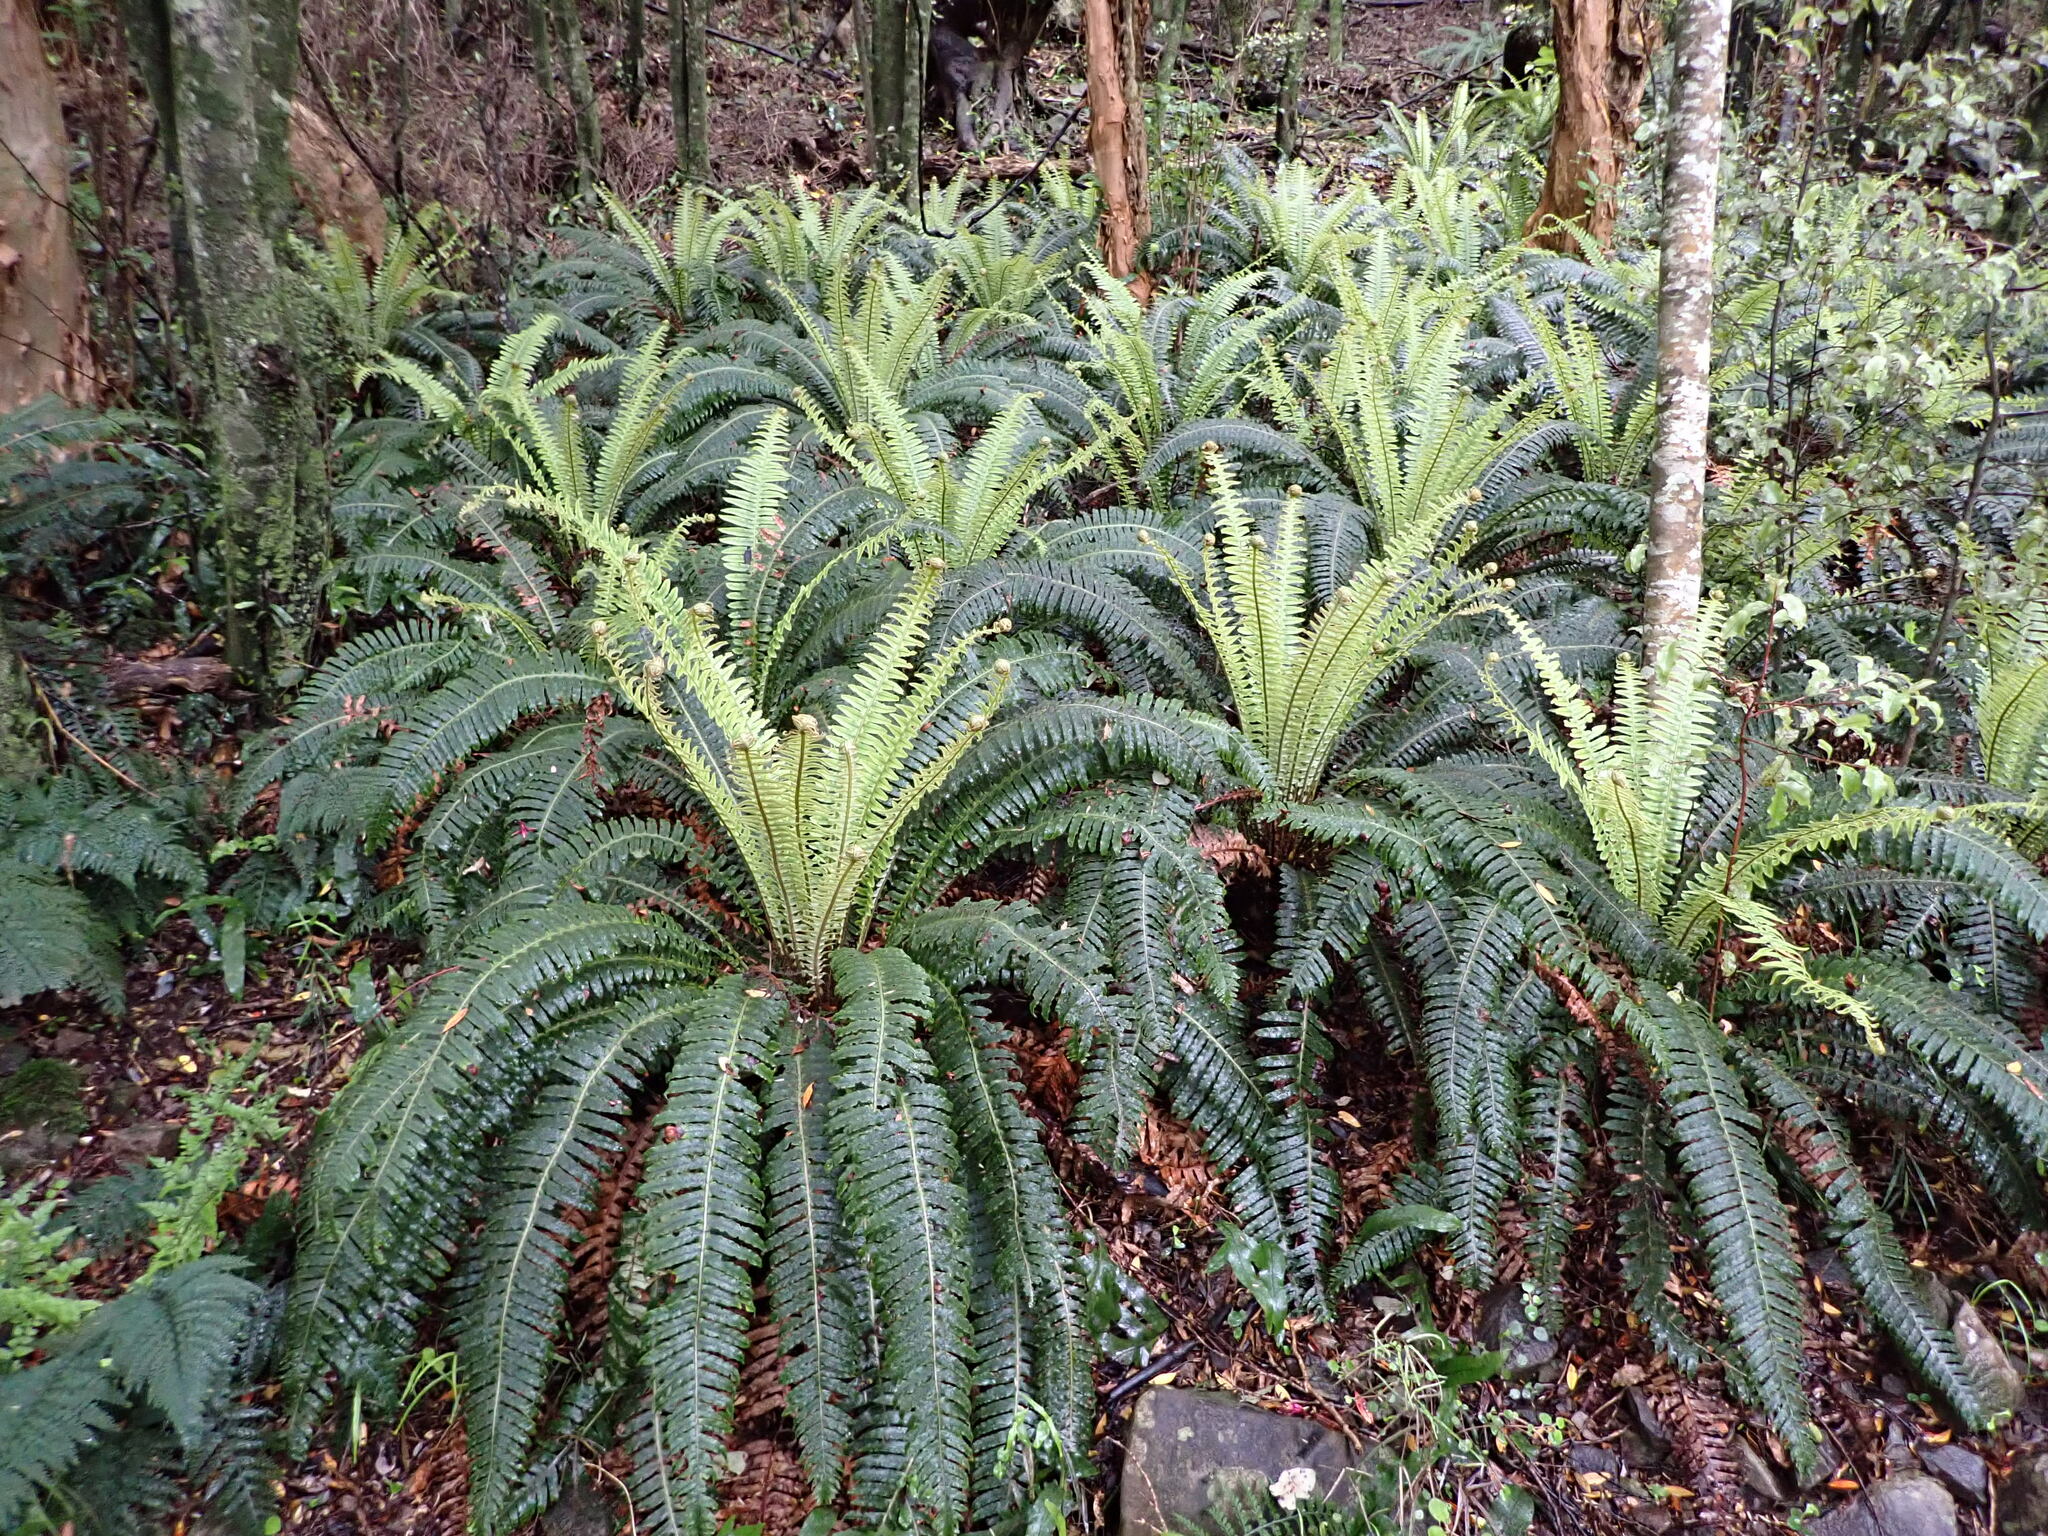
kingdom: Plantae
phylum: Tracheophyta
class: Polypodiopsida
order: Polypodiales
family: Blechnaceae
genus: Lomaria
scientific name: Lomaria discolor
